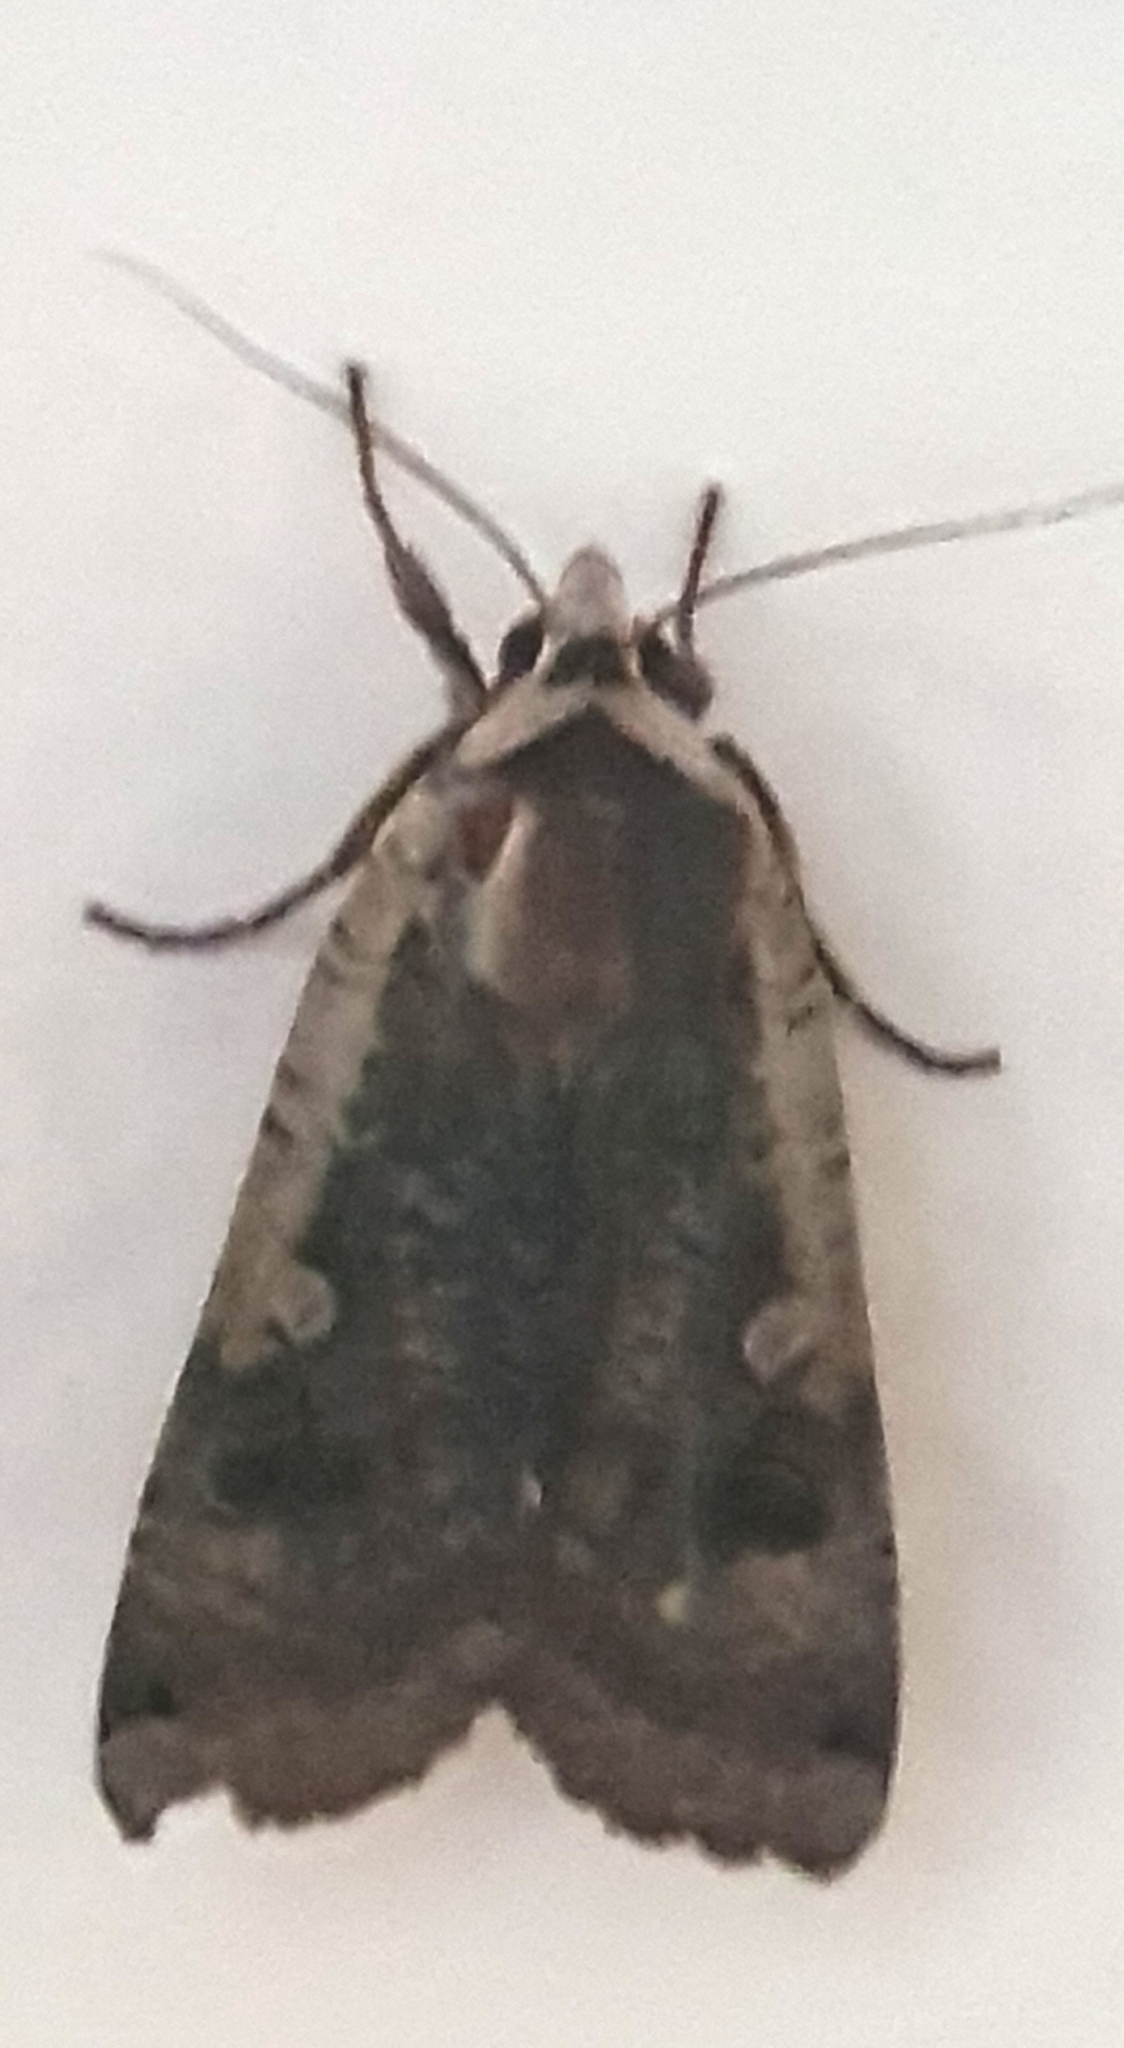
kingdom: Animalia
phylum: Arthropoda
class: Insecta
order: Lepidoptera
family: Noctuidae
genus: Noctua
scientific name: Noctua pronuba
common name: Large yellow underwing
